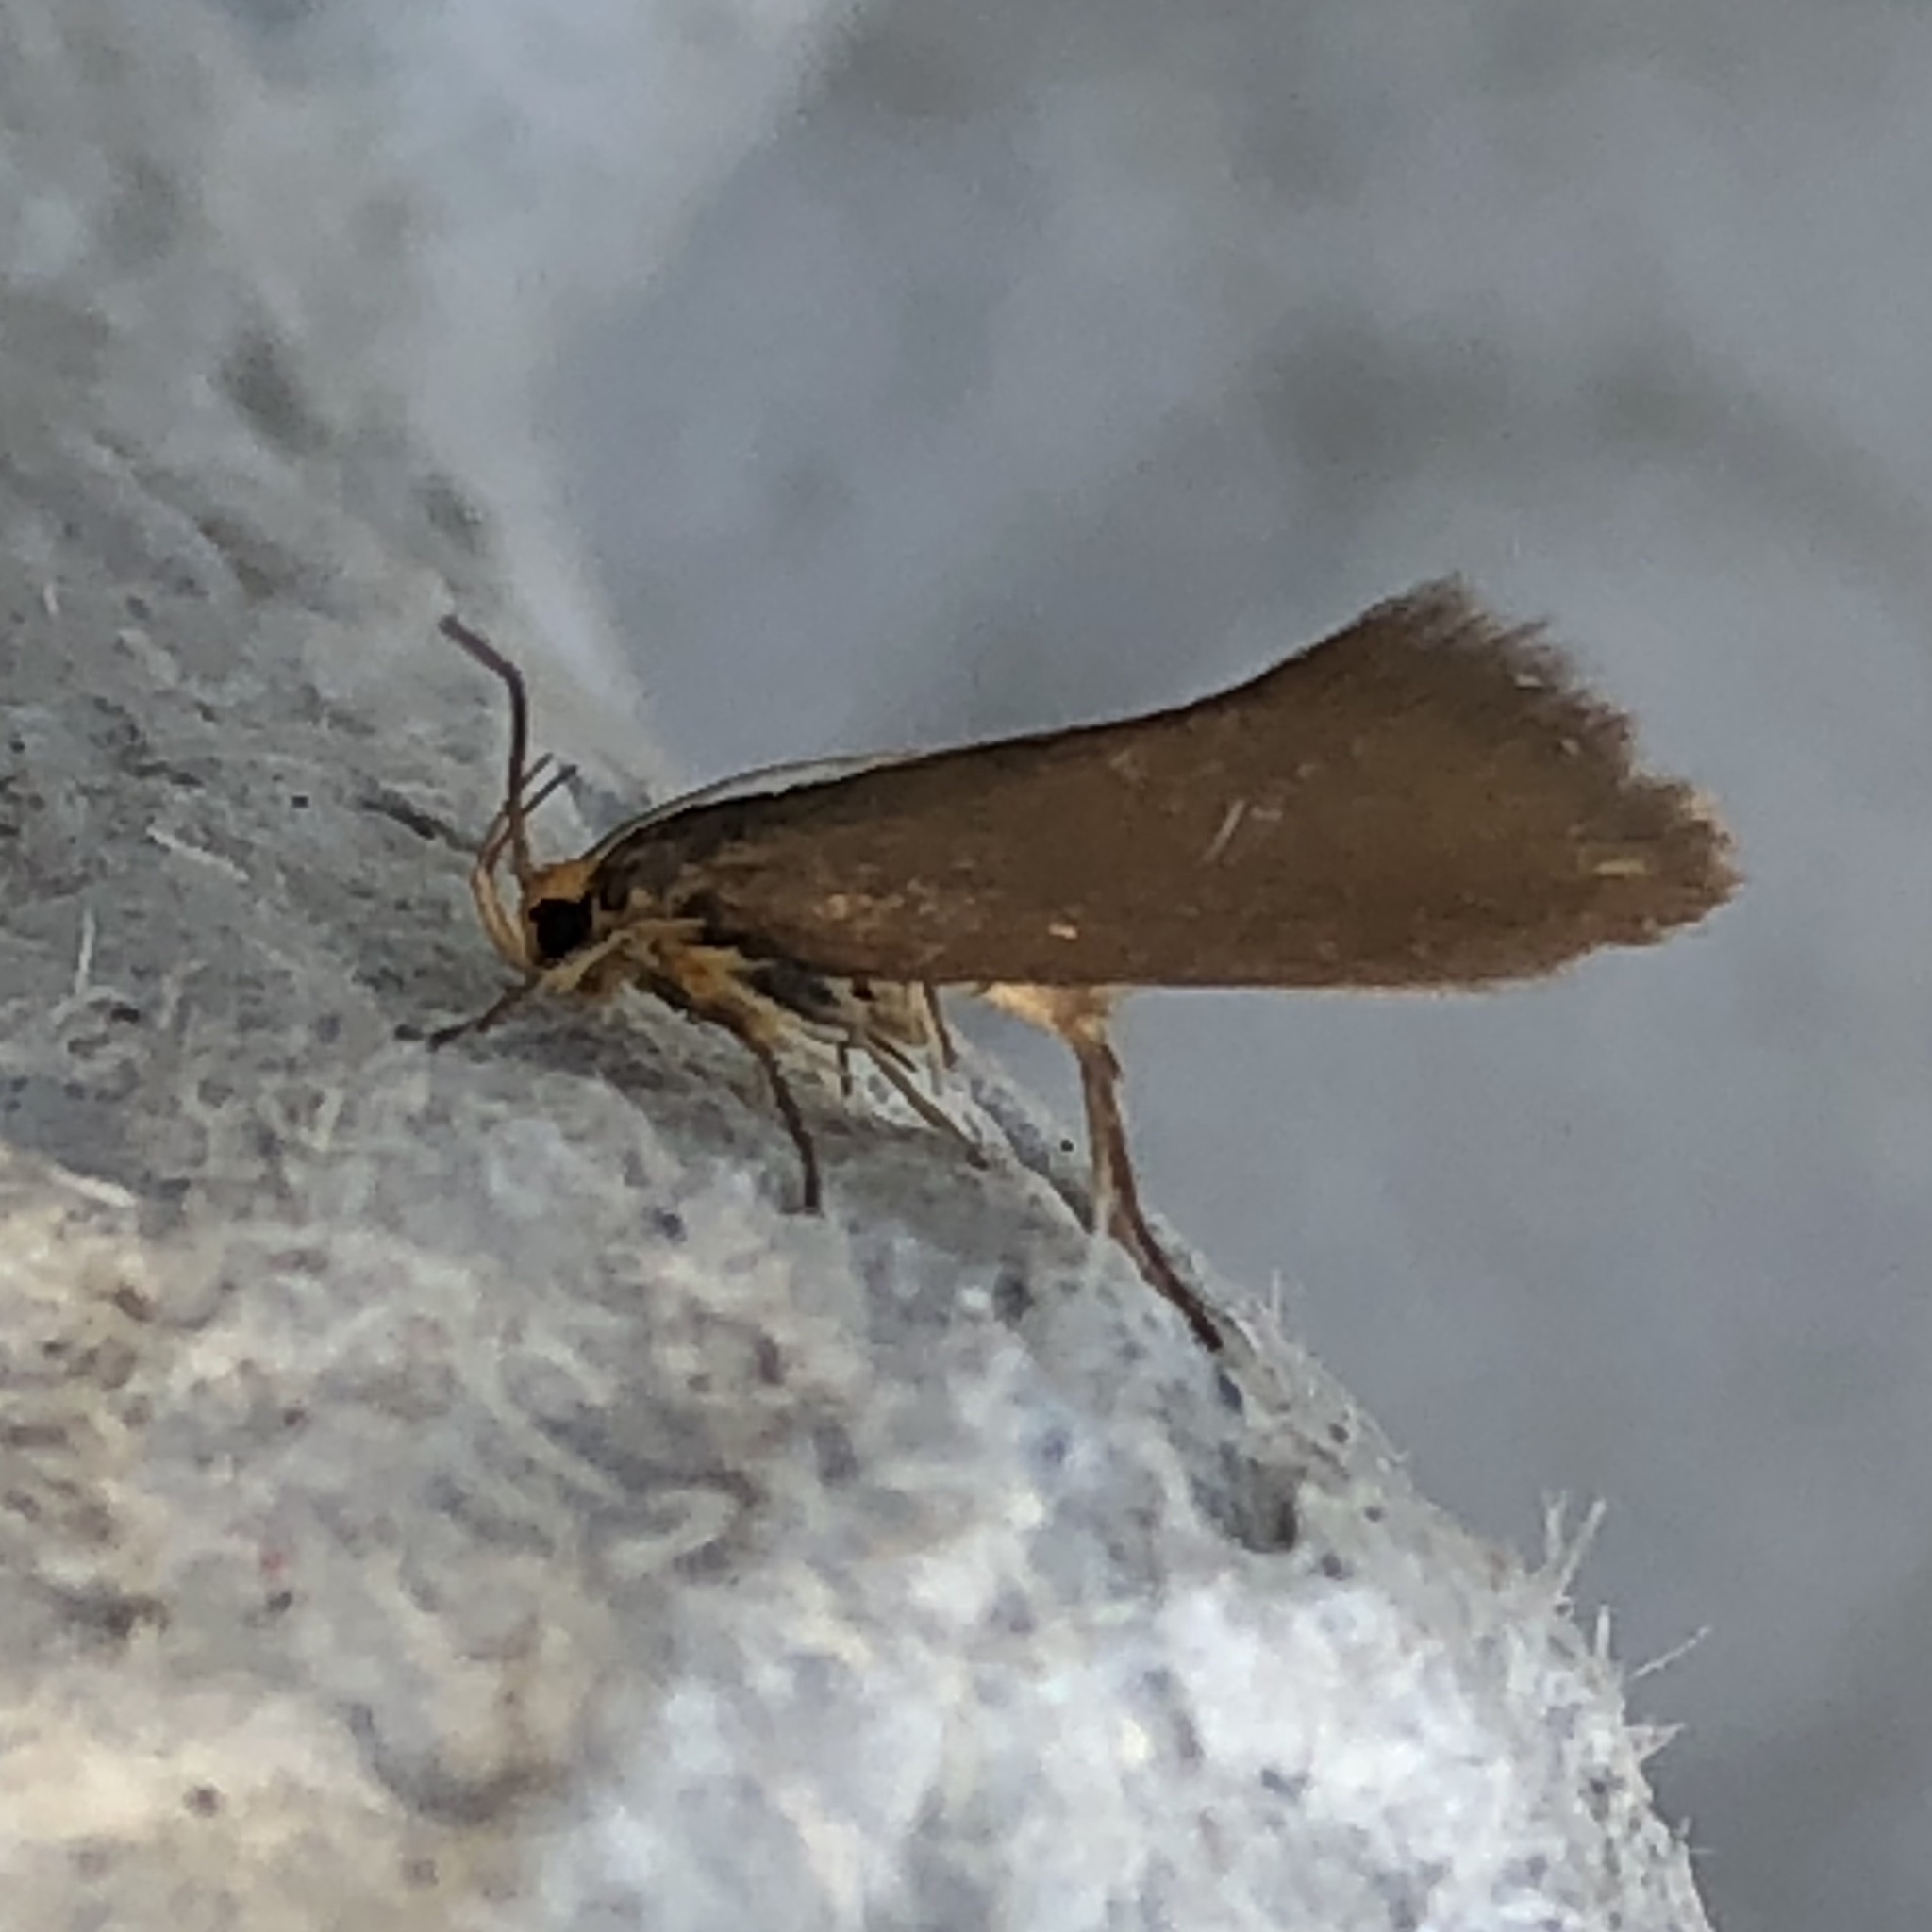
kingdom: Animalia
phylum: Arthropoda
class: Insecta
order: Lepidoptera
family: Oecophoridae
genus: Borkhausenia
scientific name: Borkhausenia Crassa unitella
